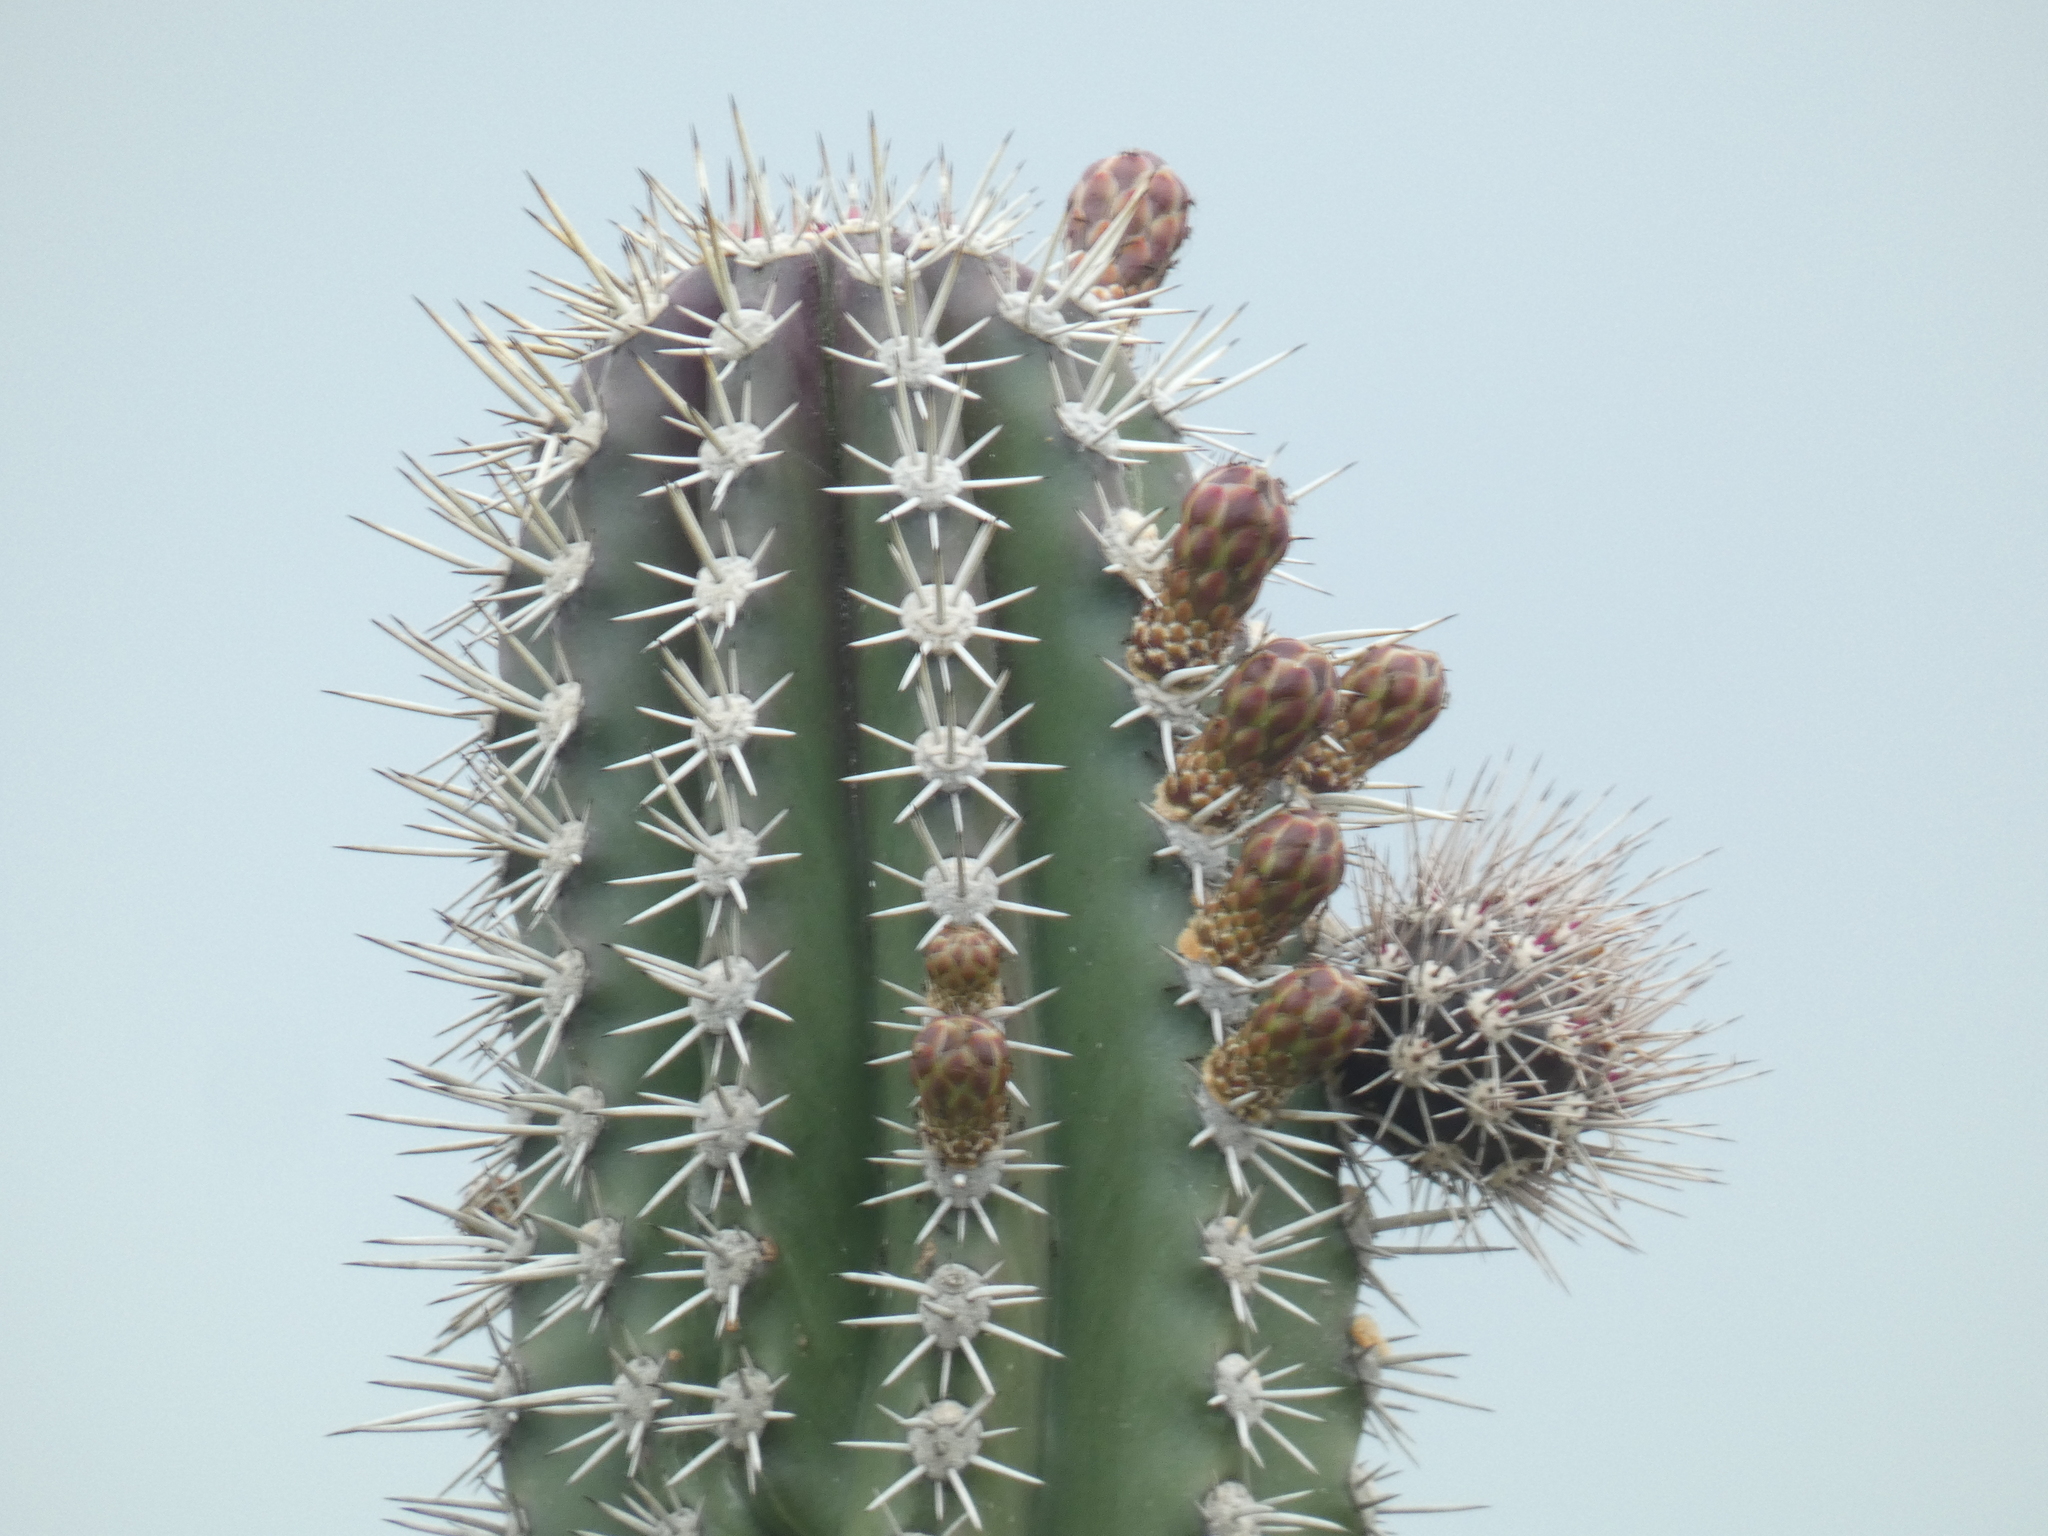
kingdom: Plantae
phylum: Tracheophyta
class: Magnoliopsida
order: Caryophyllales
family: Cactaceae
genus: Stenocereus
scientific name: Stenocereus griseus
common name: Tall candelabra cactus
